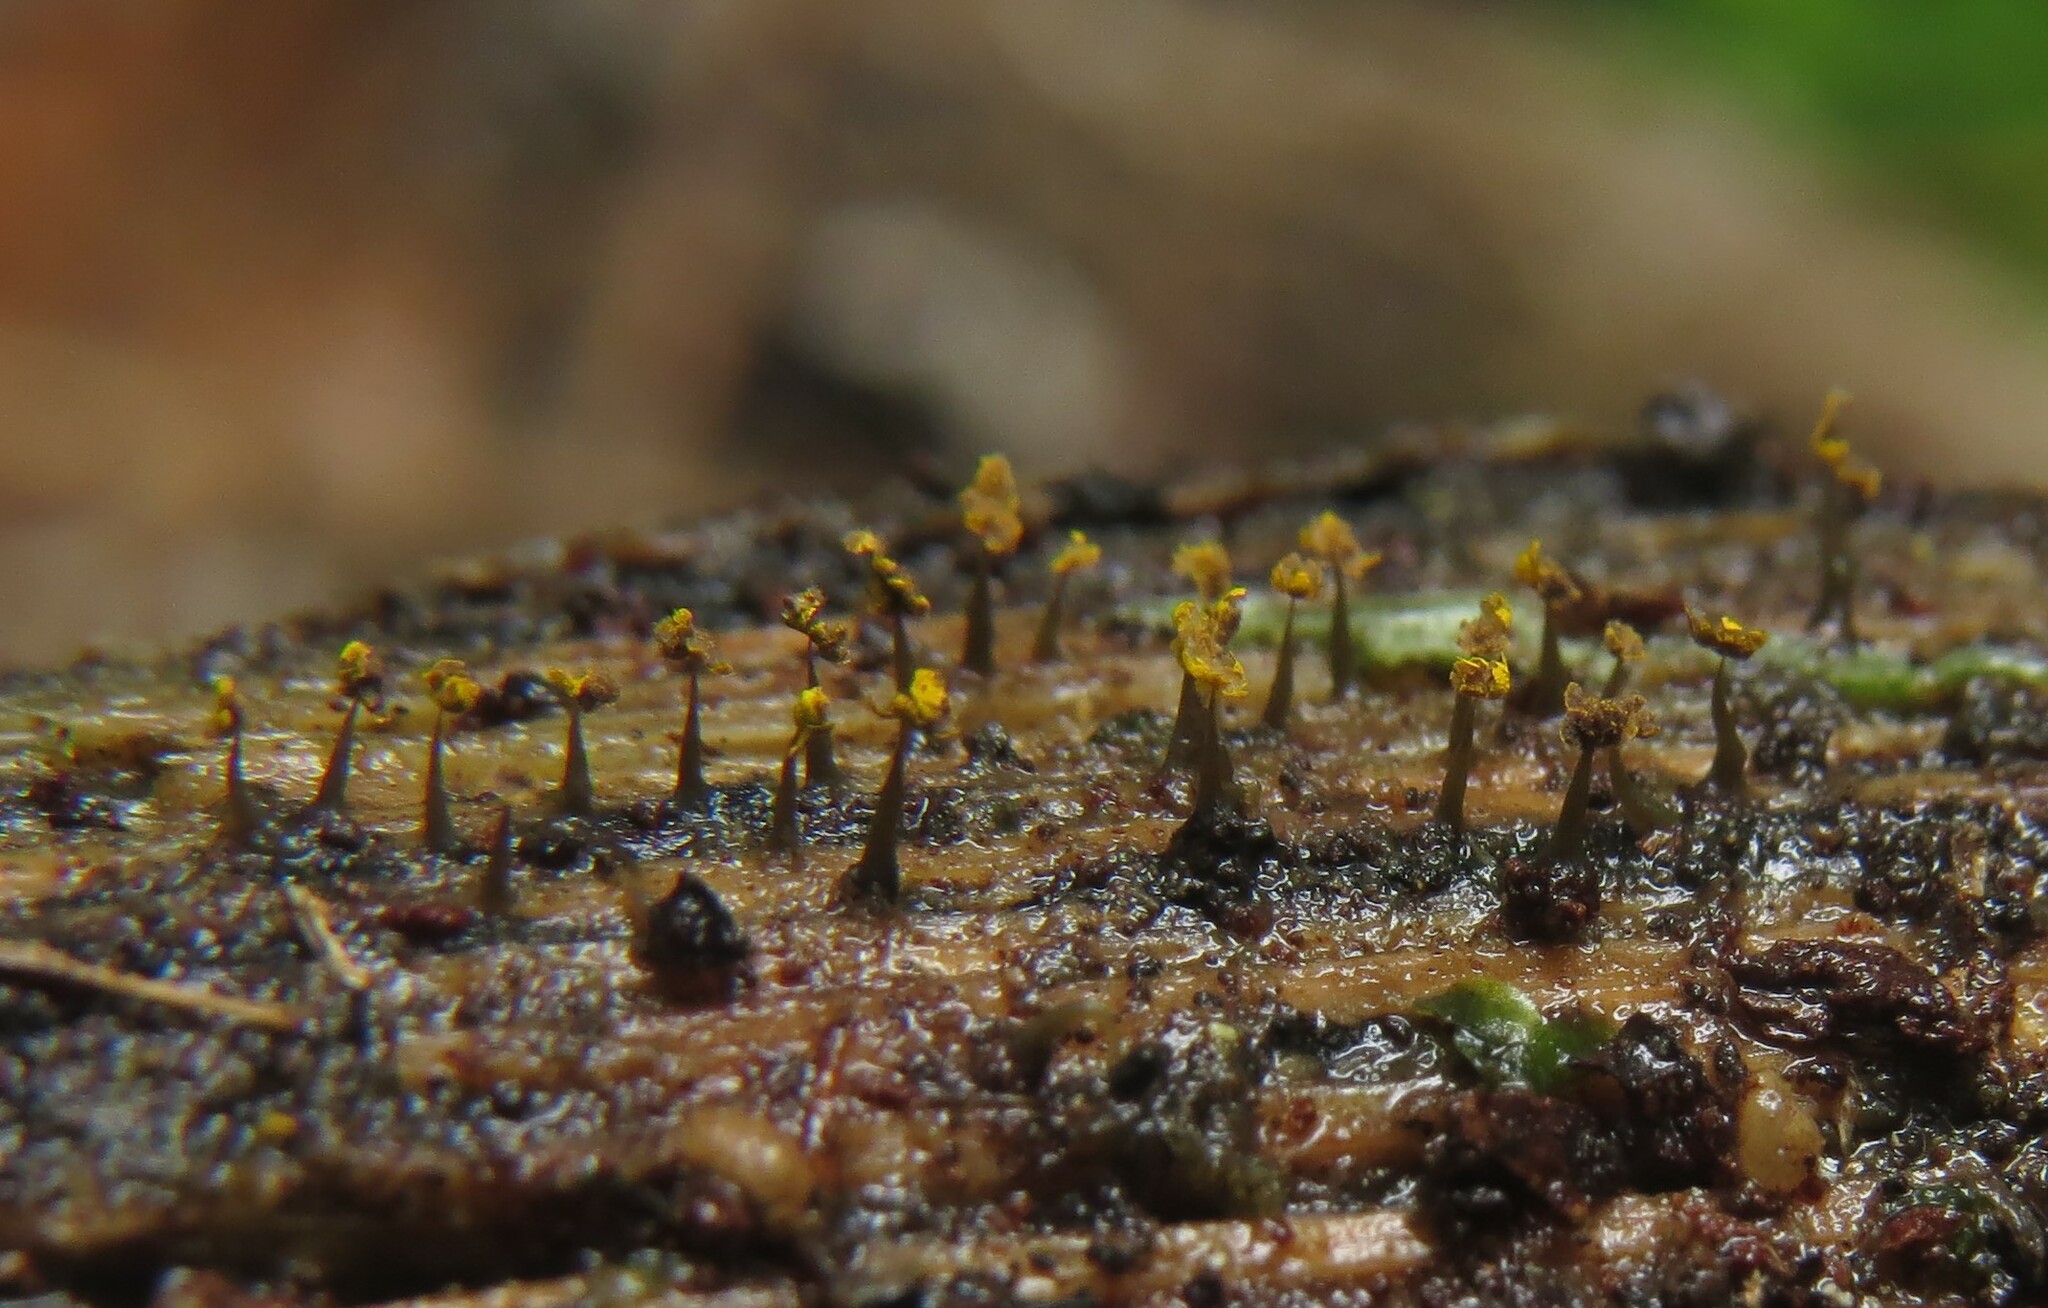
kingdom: Protozoa
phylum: Mycetozoa
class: Myxomycetes
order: Physarales
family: Physaraceae
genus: Physarum
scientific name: Physarum viride
